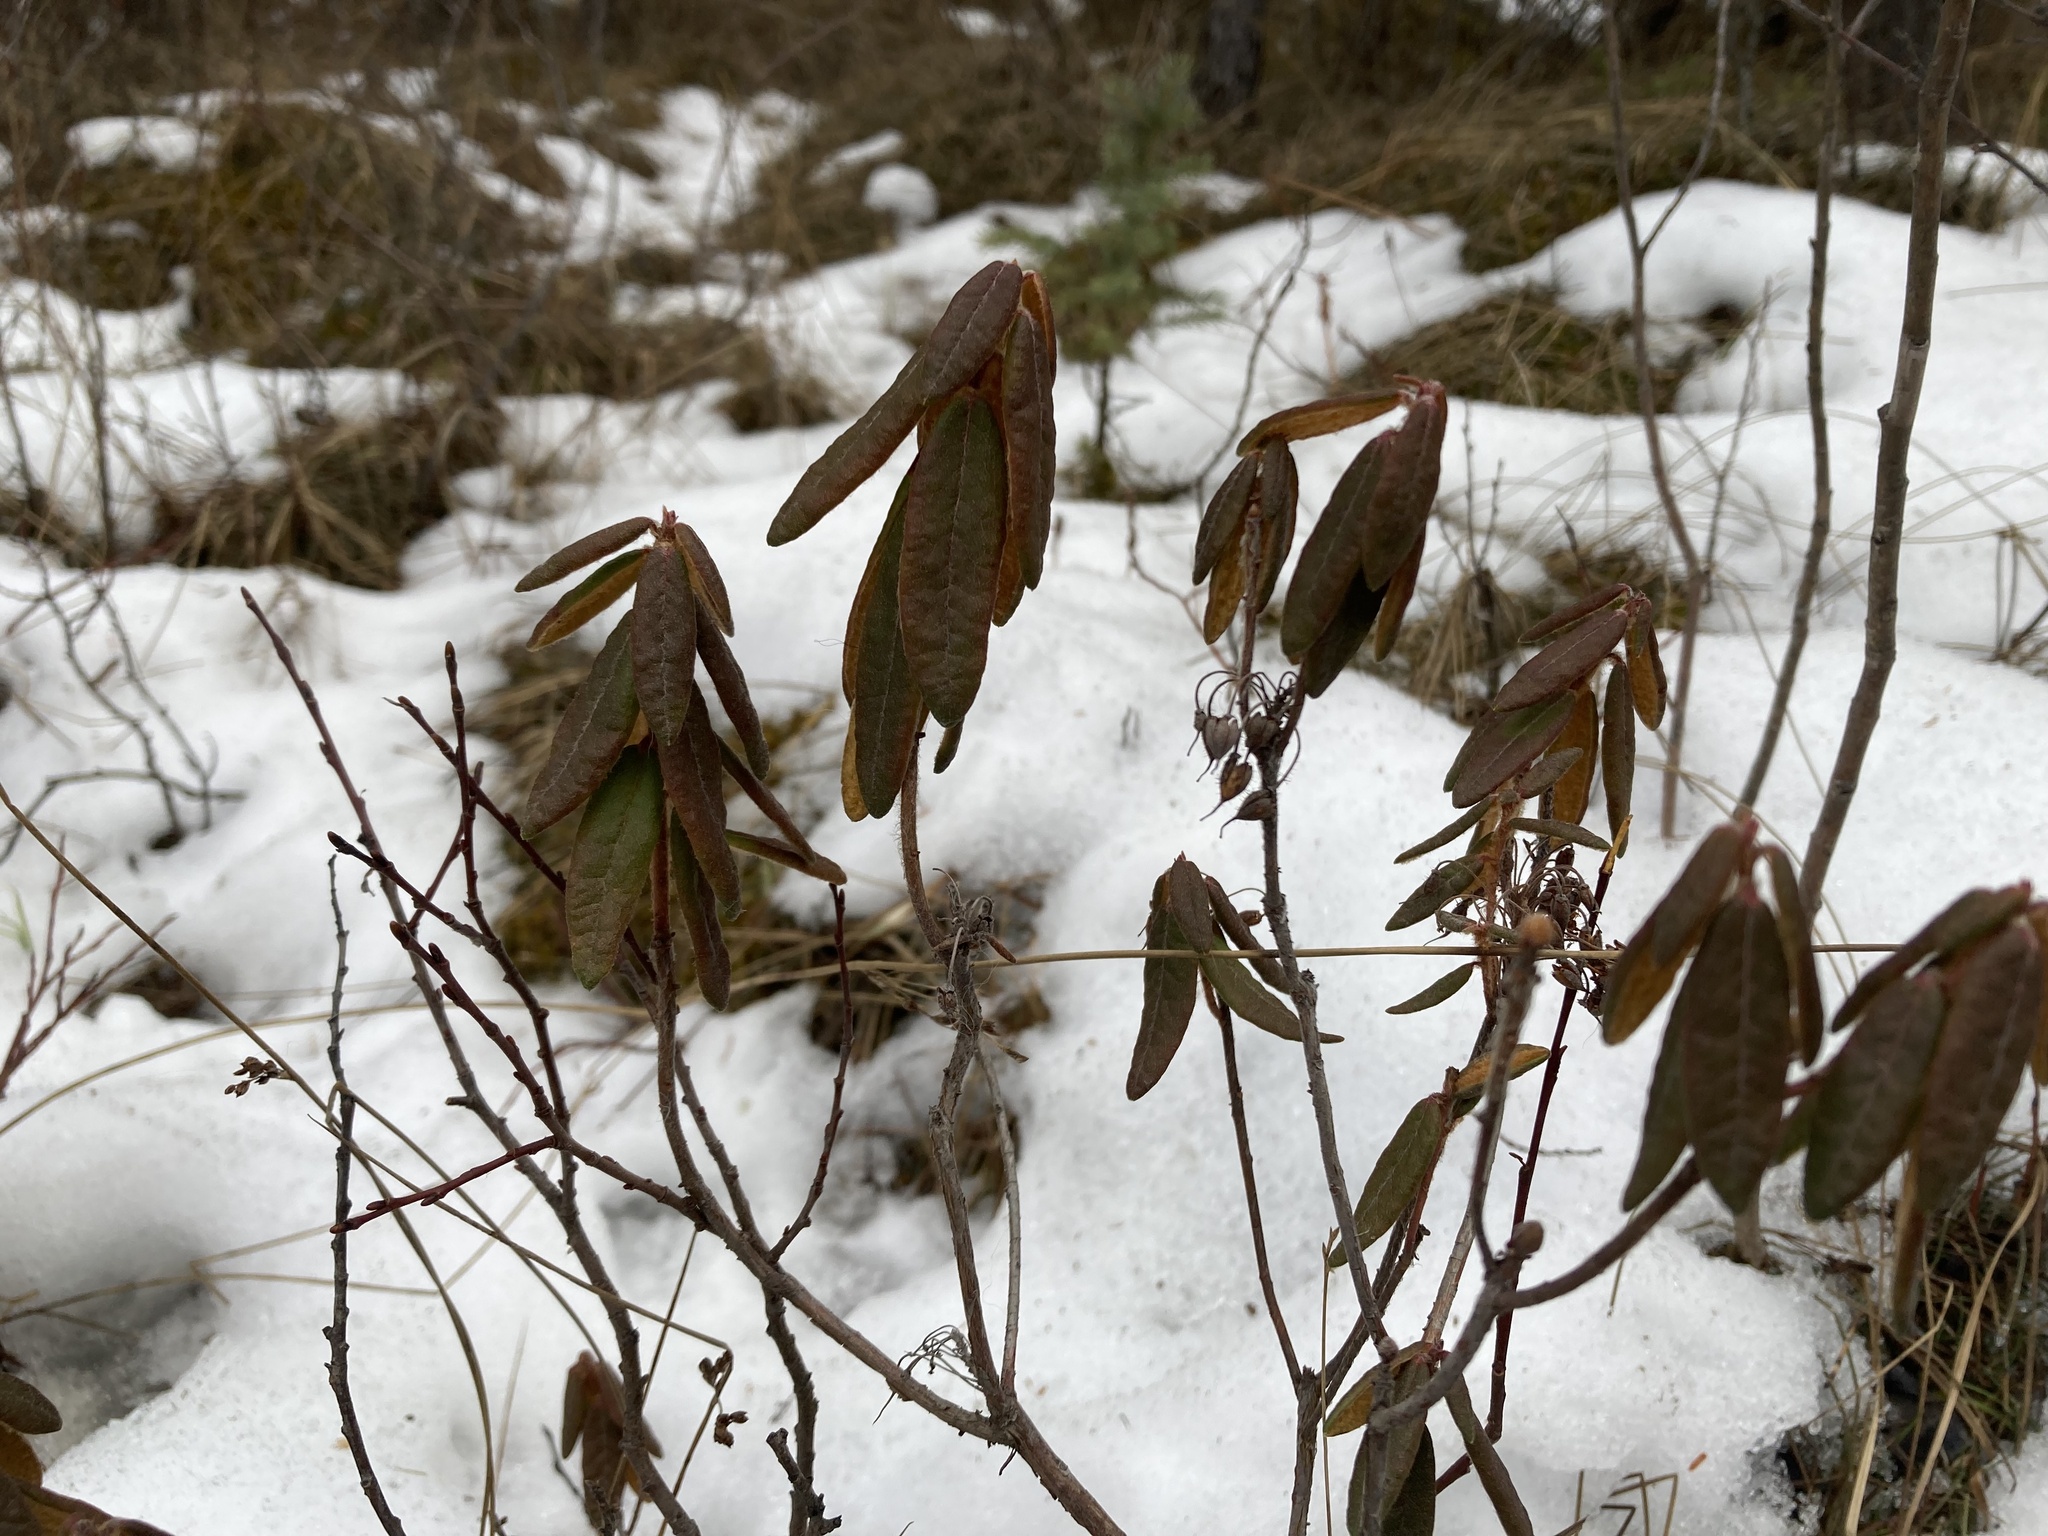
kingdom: Plantae
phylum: Tracheophyta
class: Magnoliopsida
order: Ericales
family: Ericaceae
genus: Rhododendron
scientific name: Rhododendron groenlandicum
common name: Bog labrador tea
